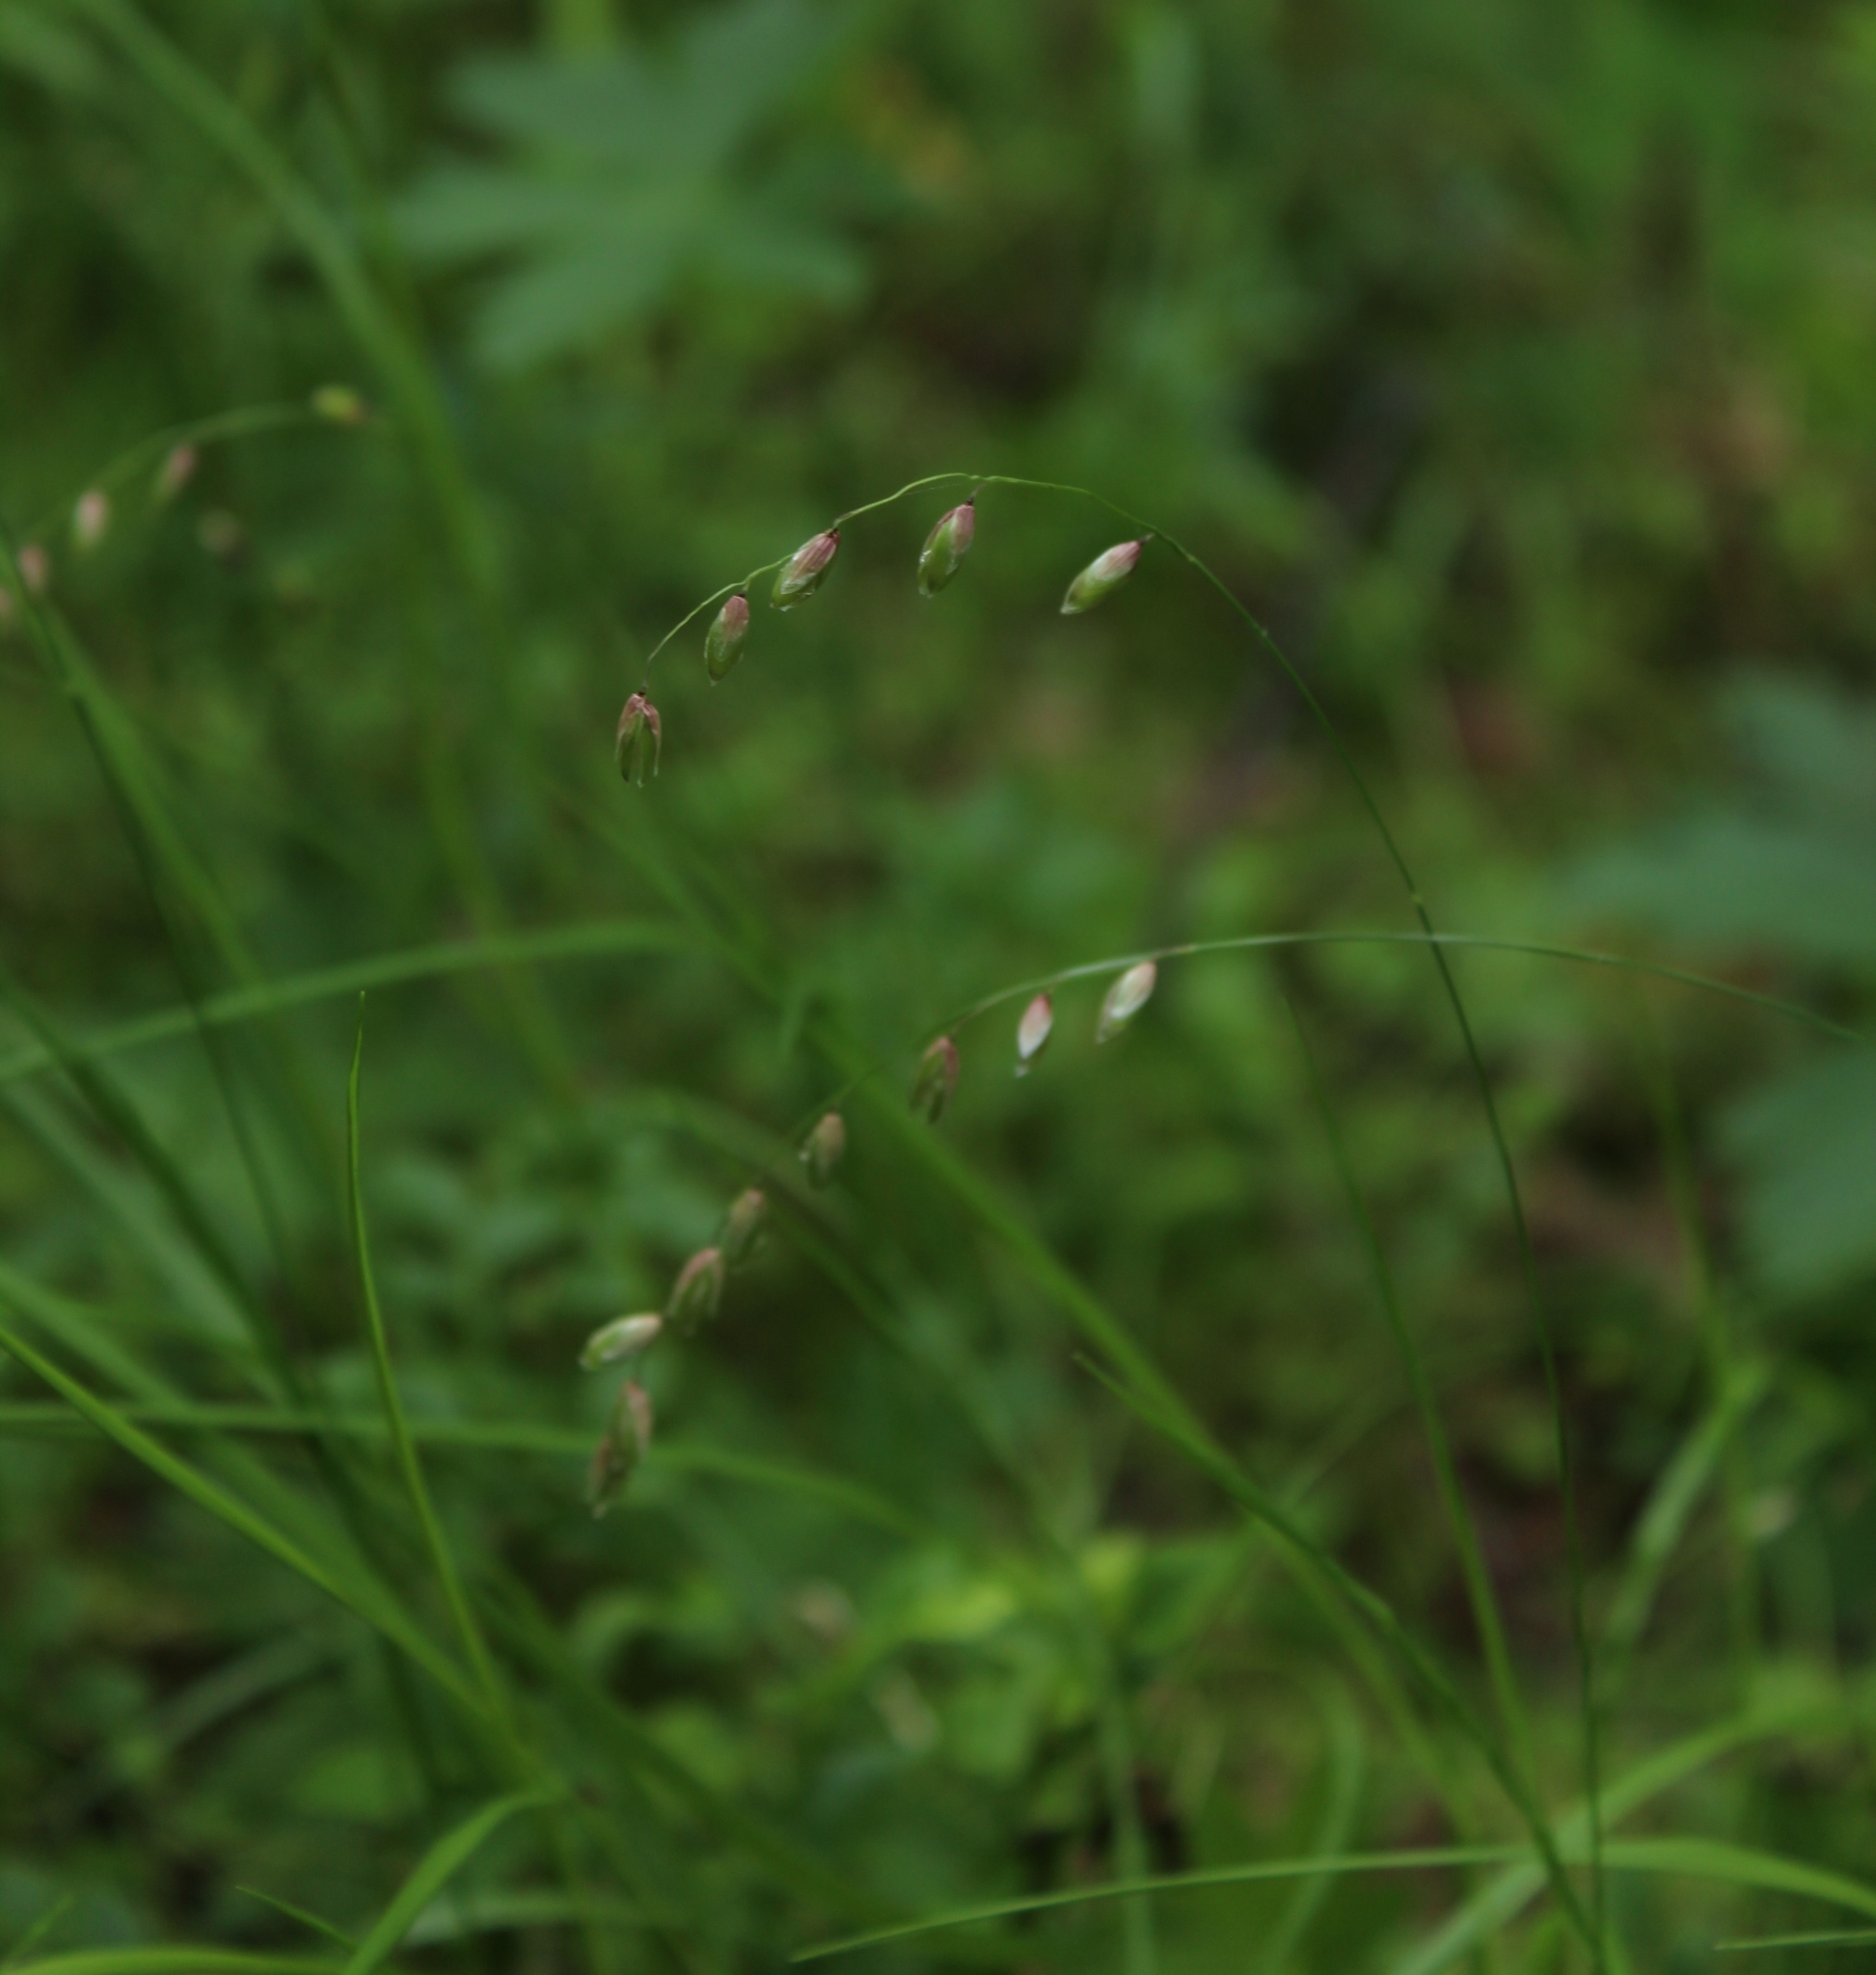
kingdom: Plantae
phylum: Tracheophyta
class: Liliopsida
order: Poales
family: Poaceae
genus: Melica
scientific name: Melica nutans
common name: Mountain melick
